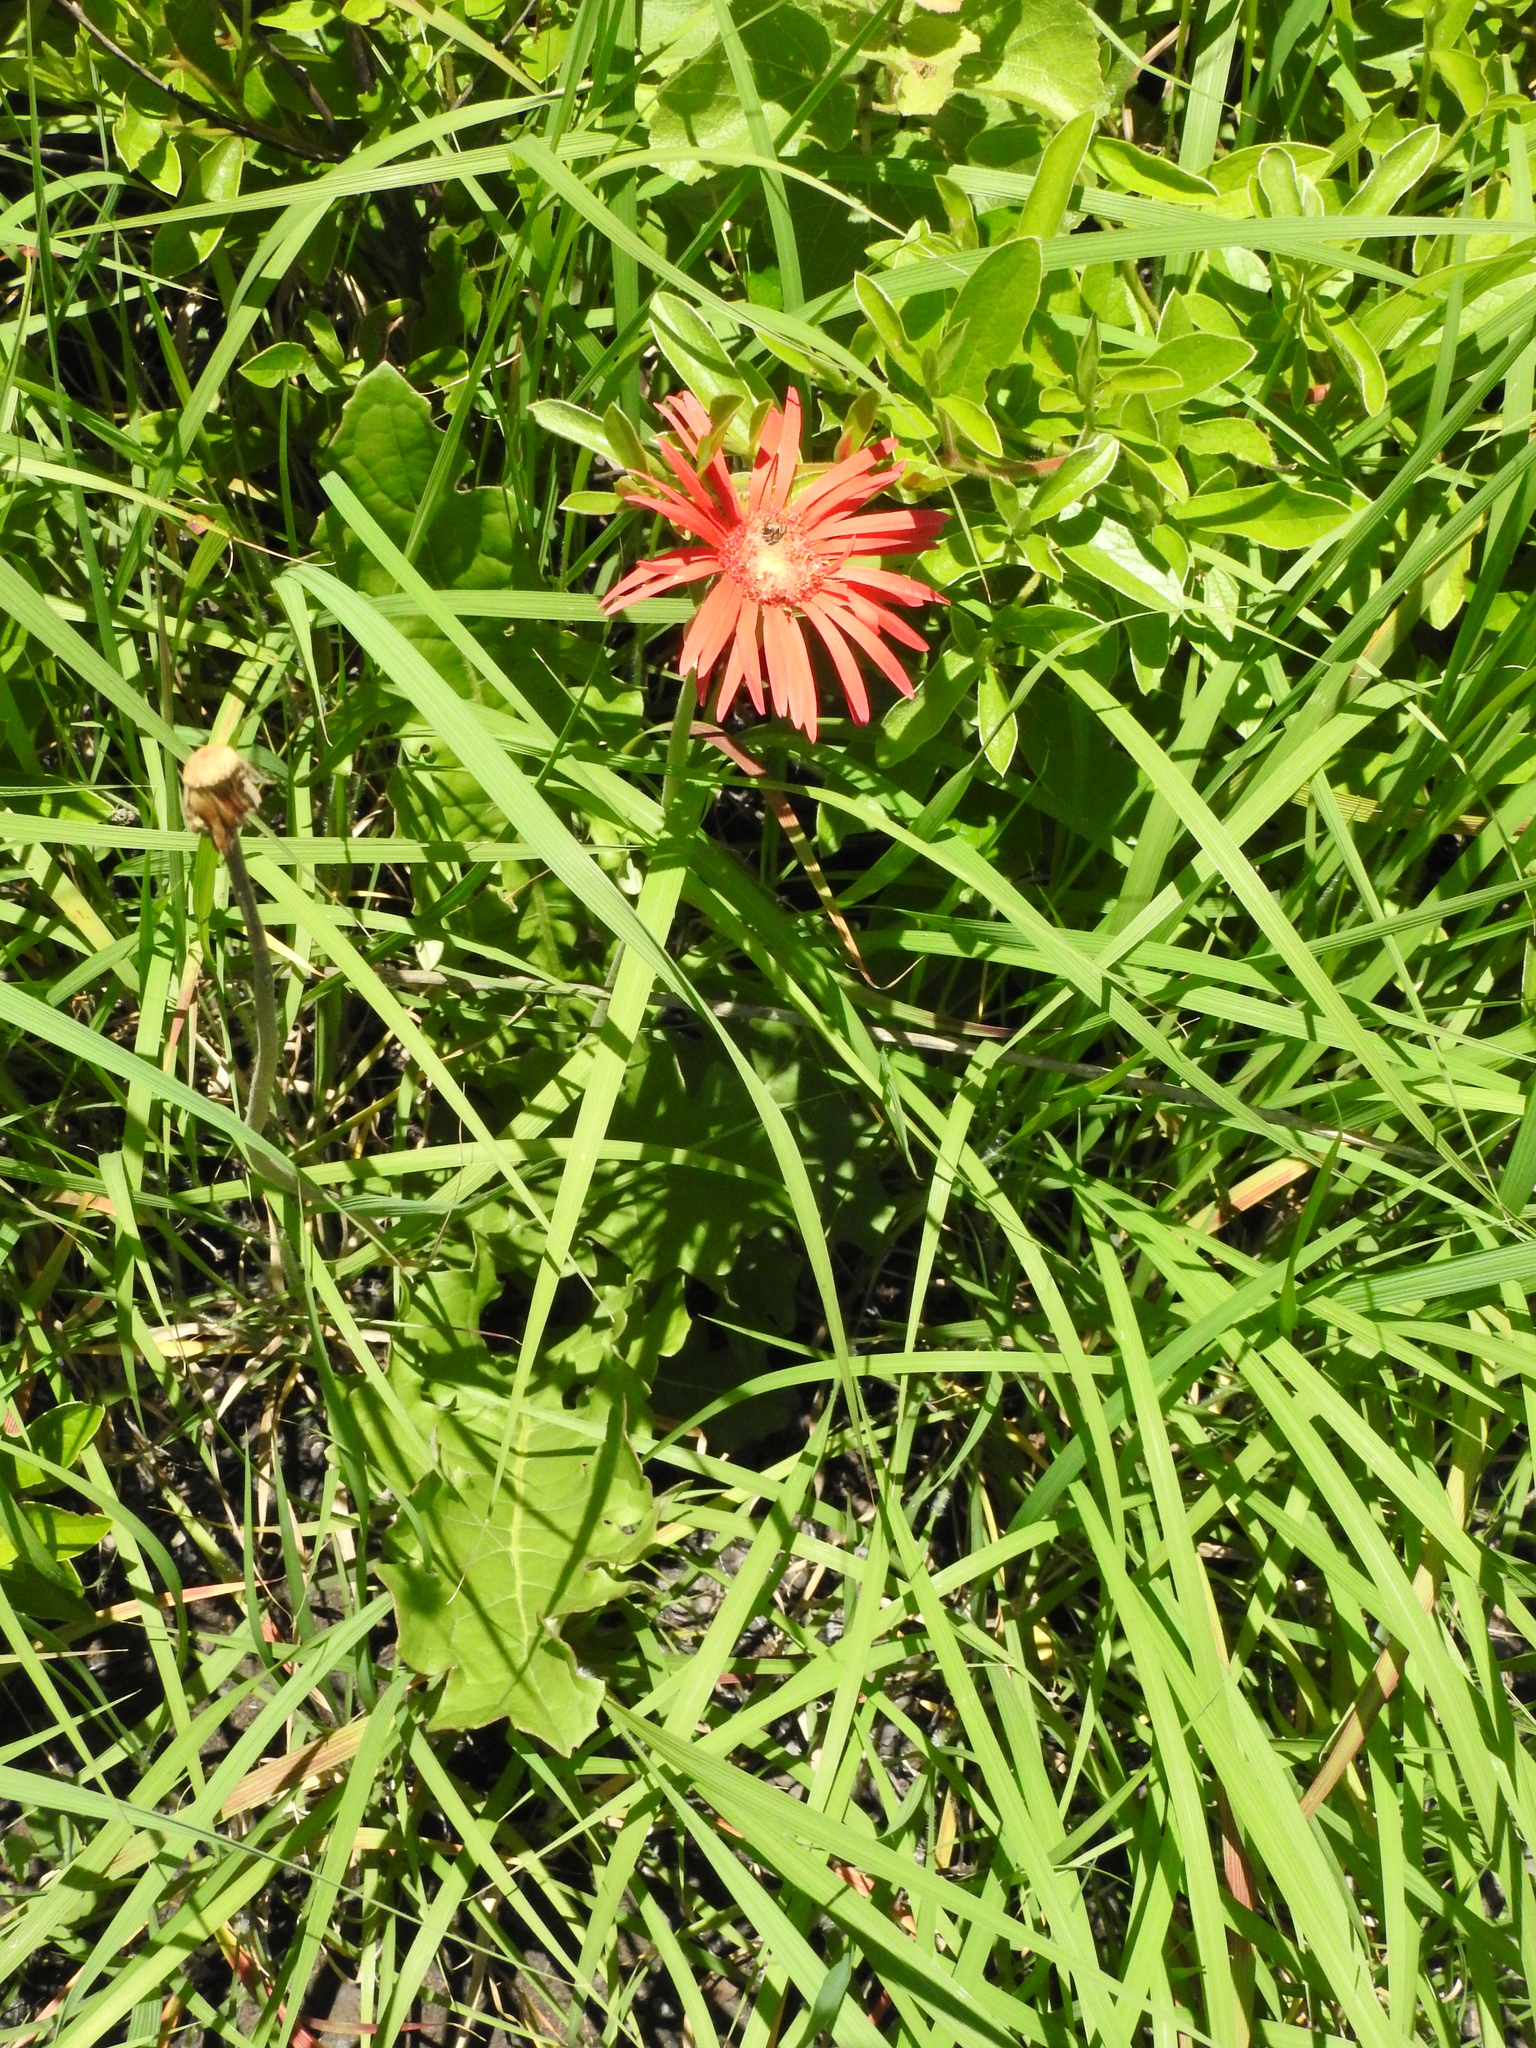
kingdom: Plantae
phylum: Tracheophyta
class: Magnoliopsida
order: Asterales
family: Asteraceae
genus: Gerbera
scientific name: Gerbera jamesonii
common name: African daisy
